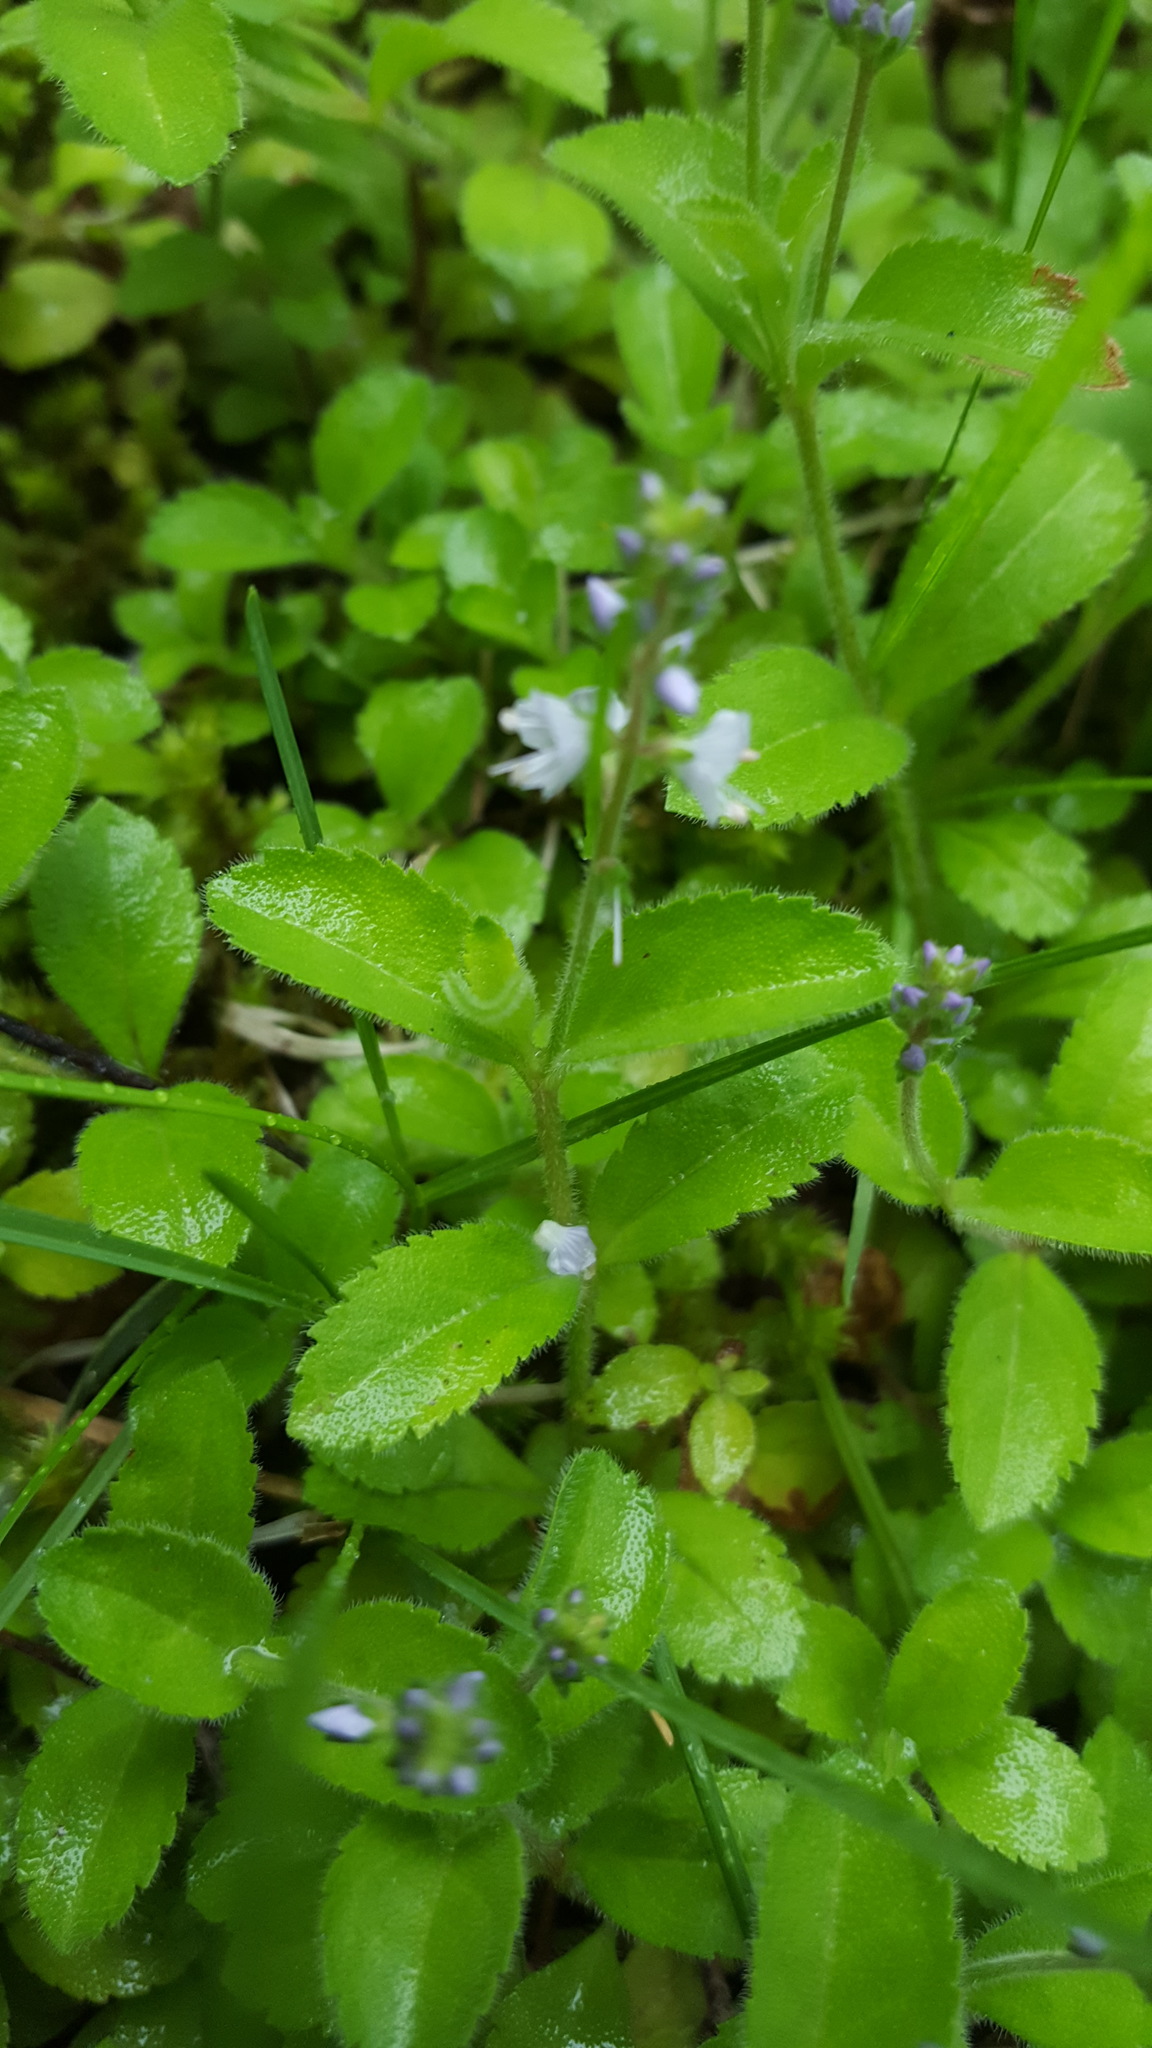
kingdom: Plantae
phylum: Tracheophyta
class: Magnoliopsida
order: Lamiales
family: Plantaginaceae
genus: Veronica
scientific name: Veronica officinalis
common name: Common speedwell
